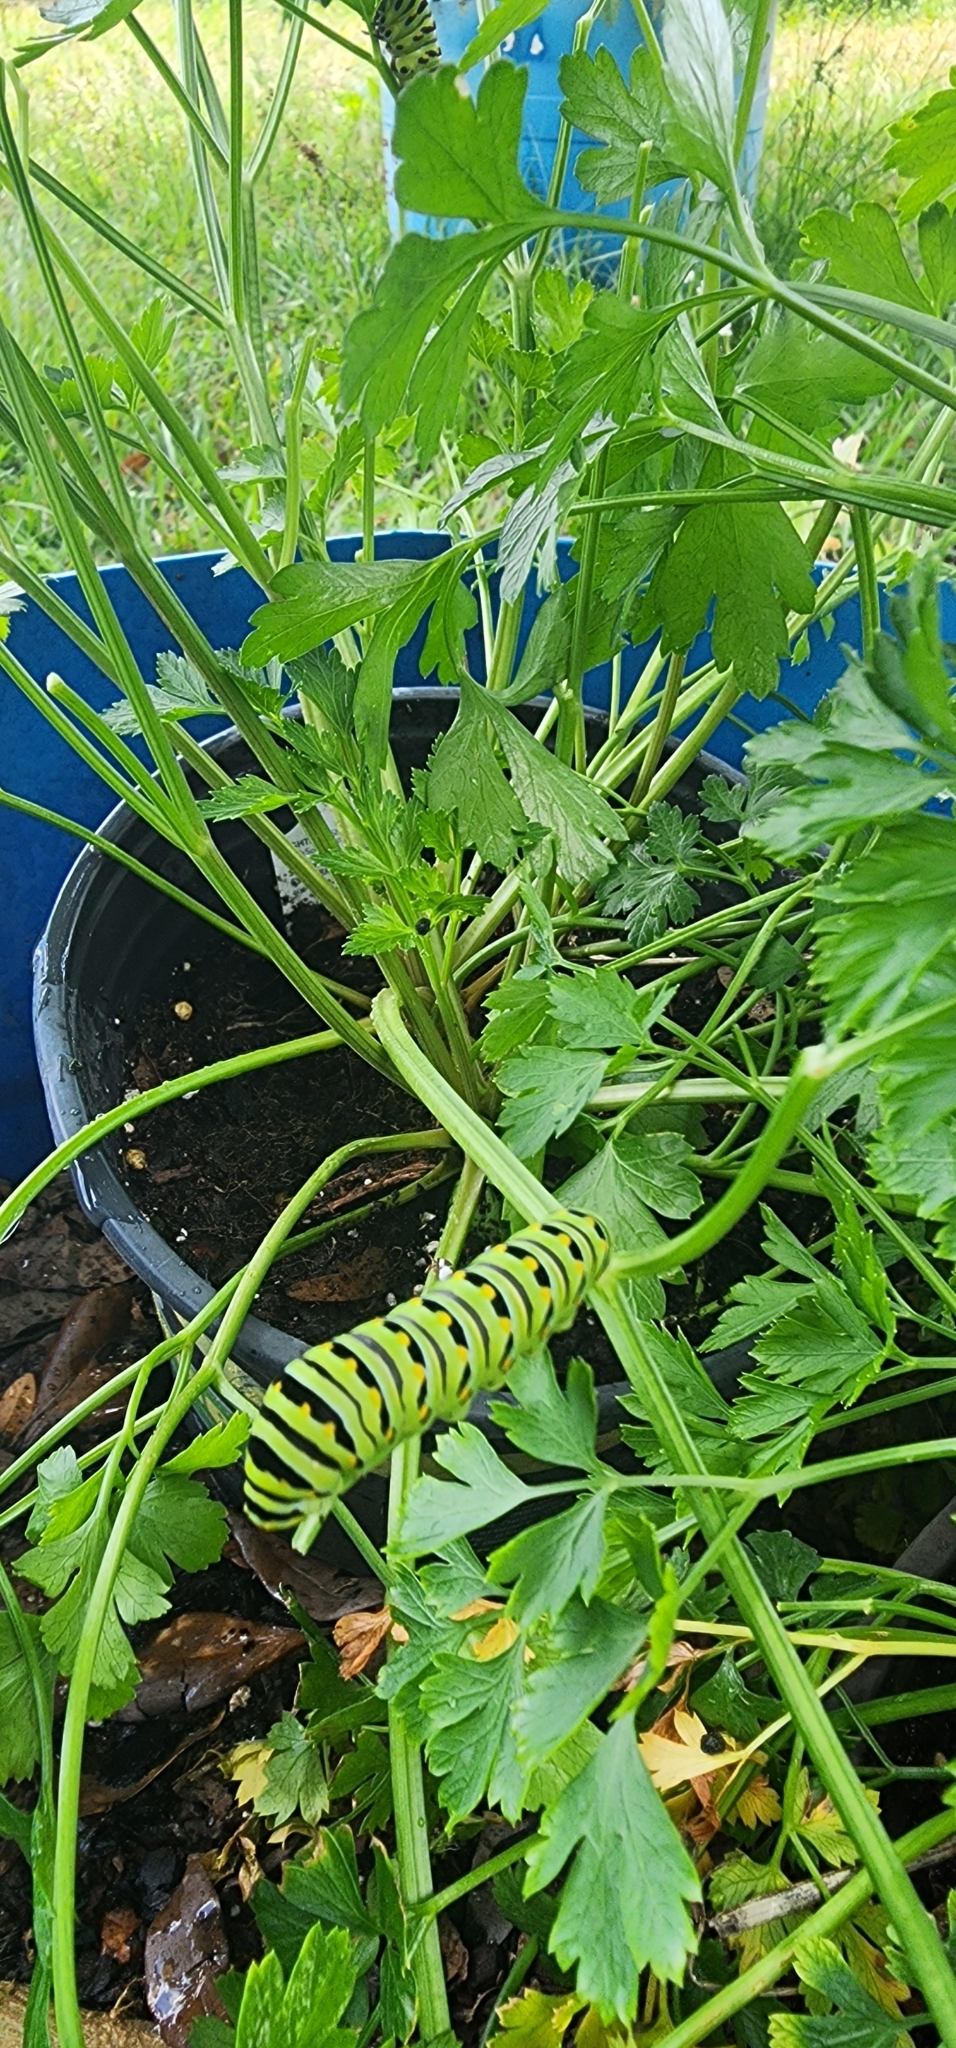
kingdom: Animalia
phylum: Arthropoda
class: Insecta
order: Lepidoptera
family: Papilionidae
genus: Papilio
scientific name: Papilio polyxenes
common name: Black swallowtail
